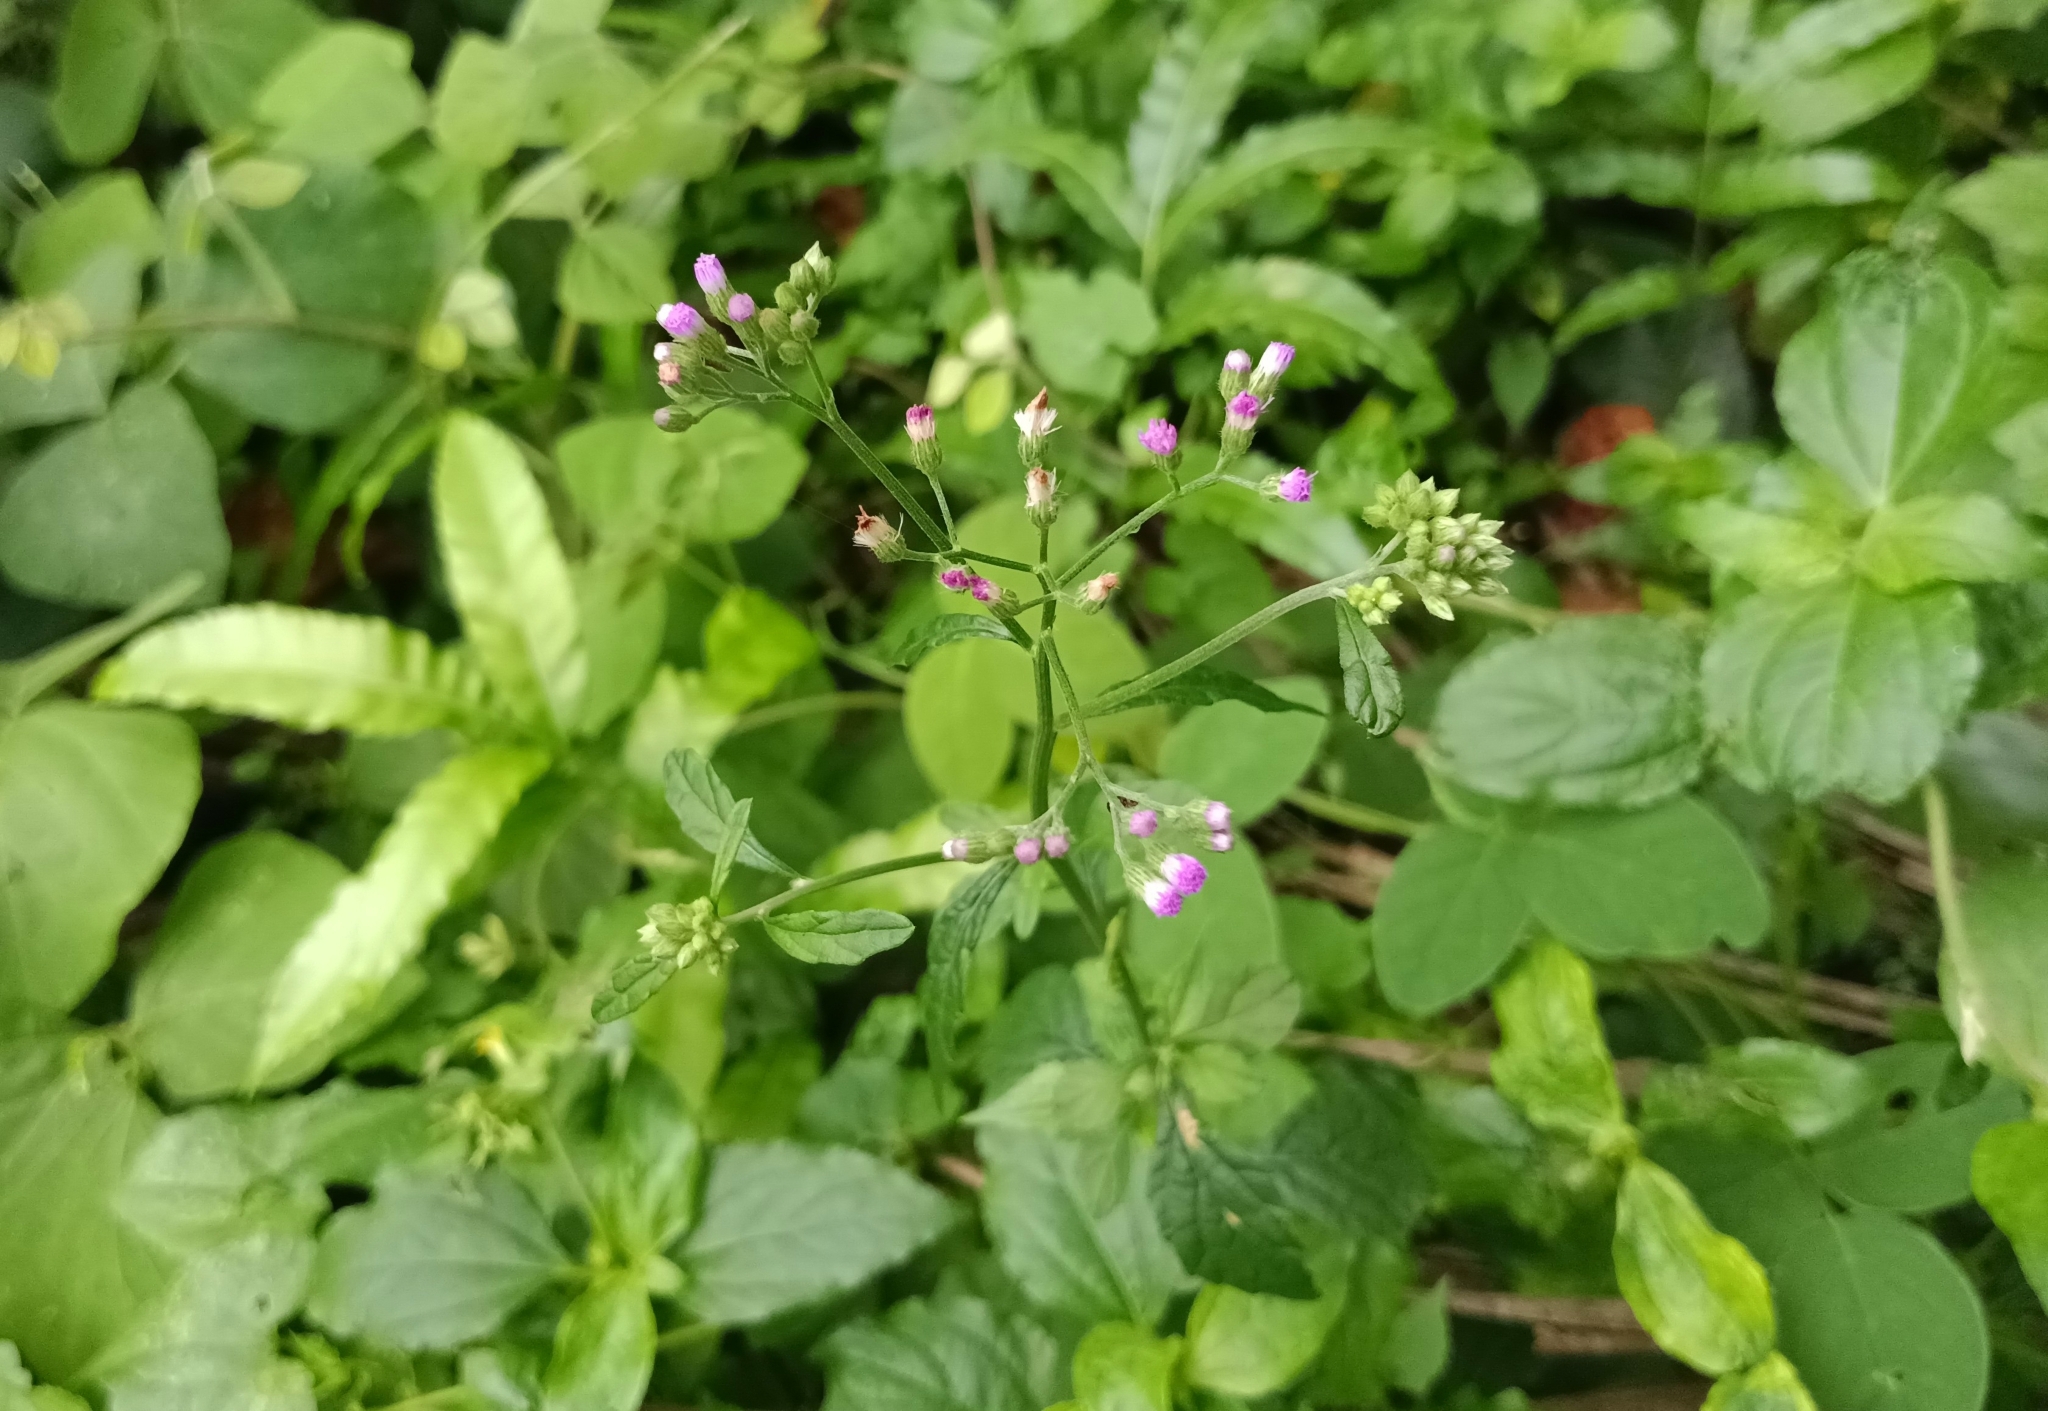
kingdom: Plantae
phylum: Tracheophyta
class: Magnoliopsida
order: Asterales
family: Asteraceae
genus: Cyanthillium
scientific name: Cyanthillium cinereum
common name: Little ironweed
